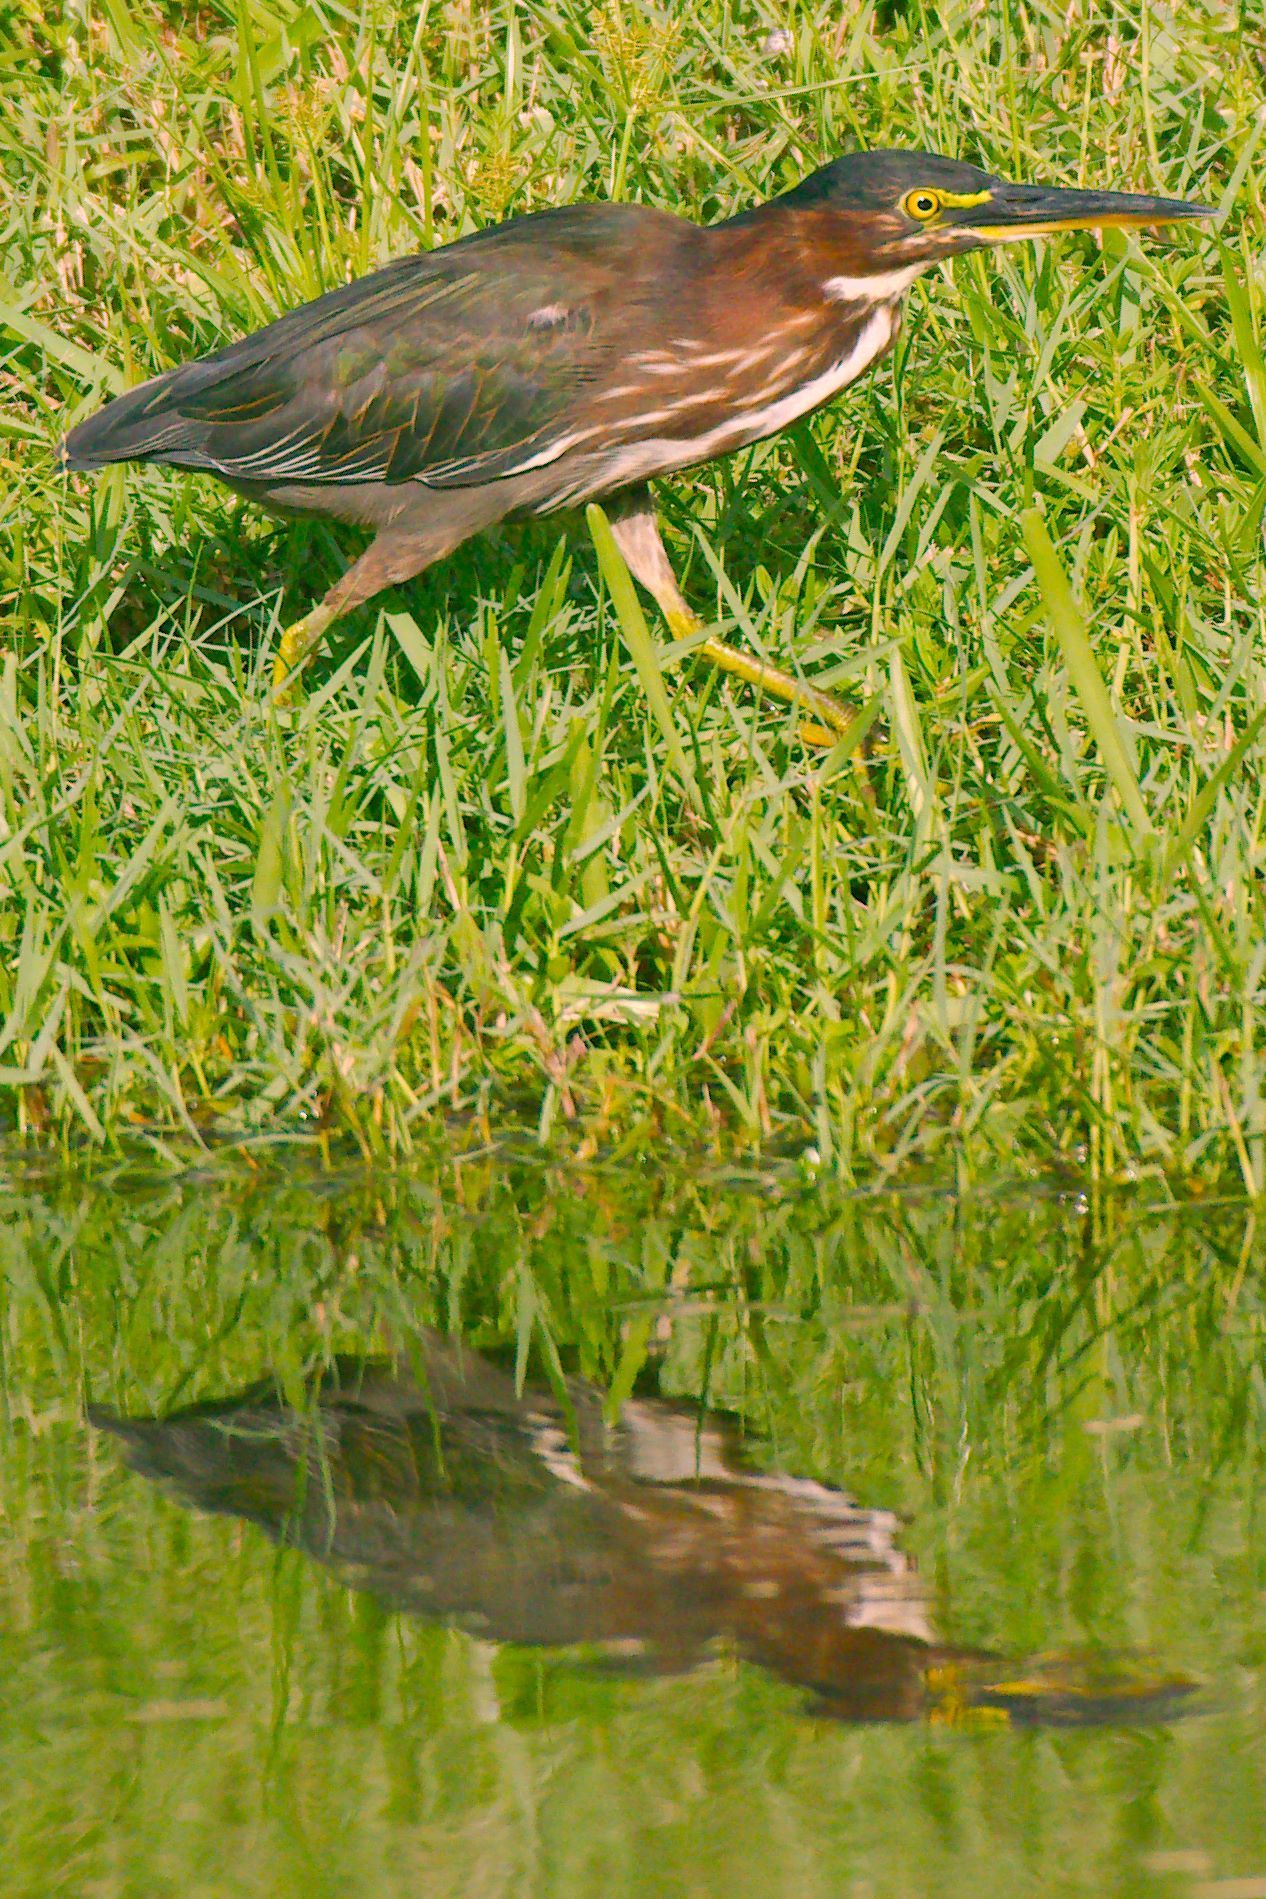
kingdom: Animalia
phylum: Chordata
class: Aves
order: Pelecaniformes
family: Ardeidae
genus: Butorides
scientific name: Butorides virescens
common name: Green heron
